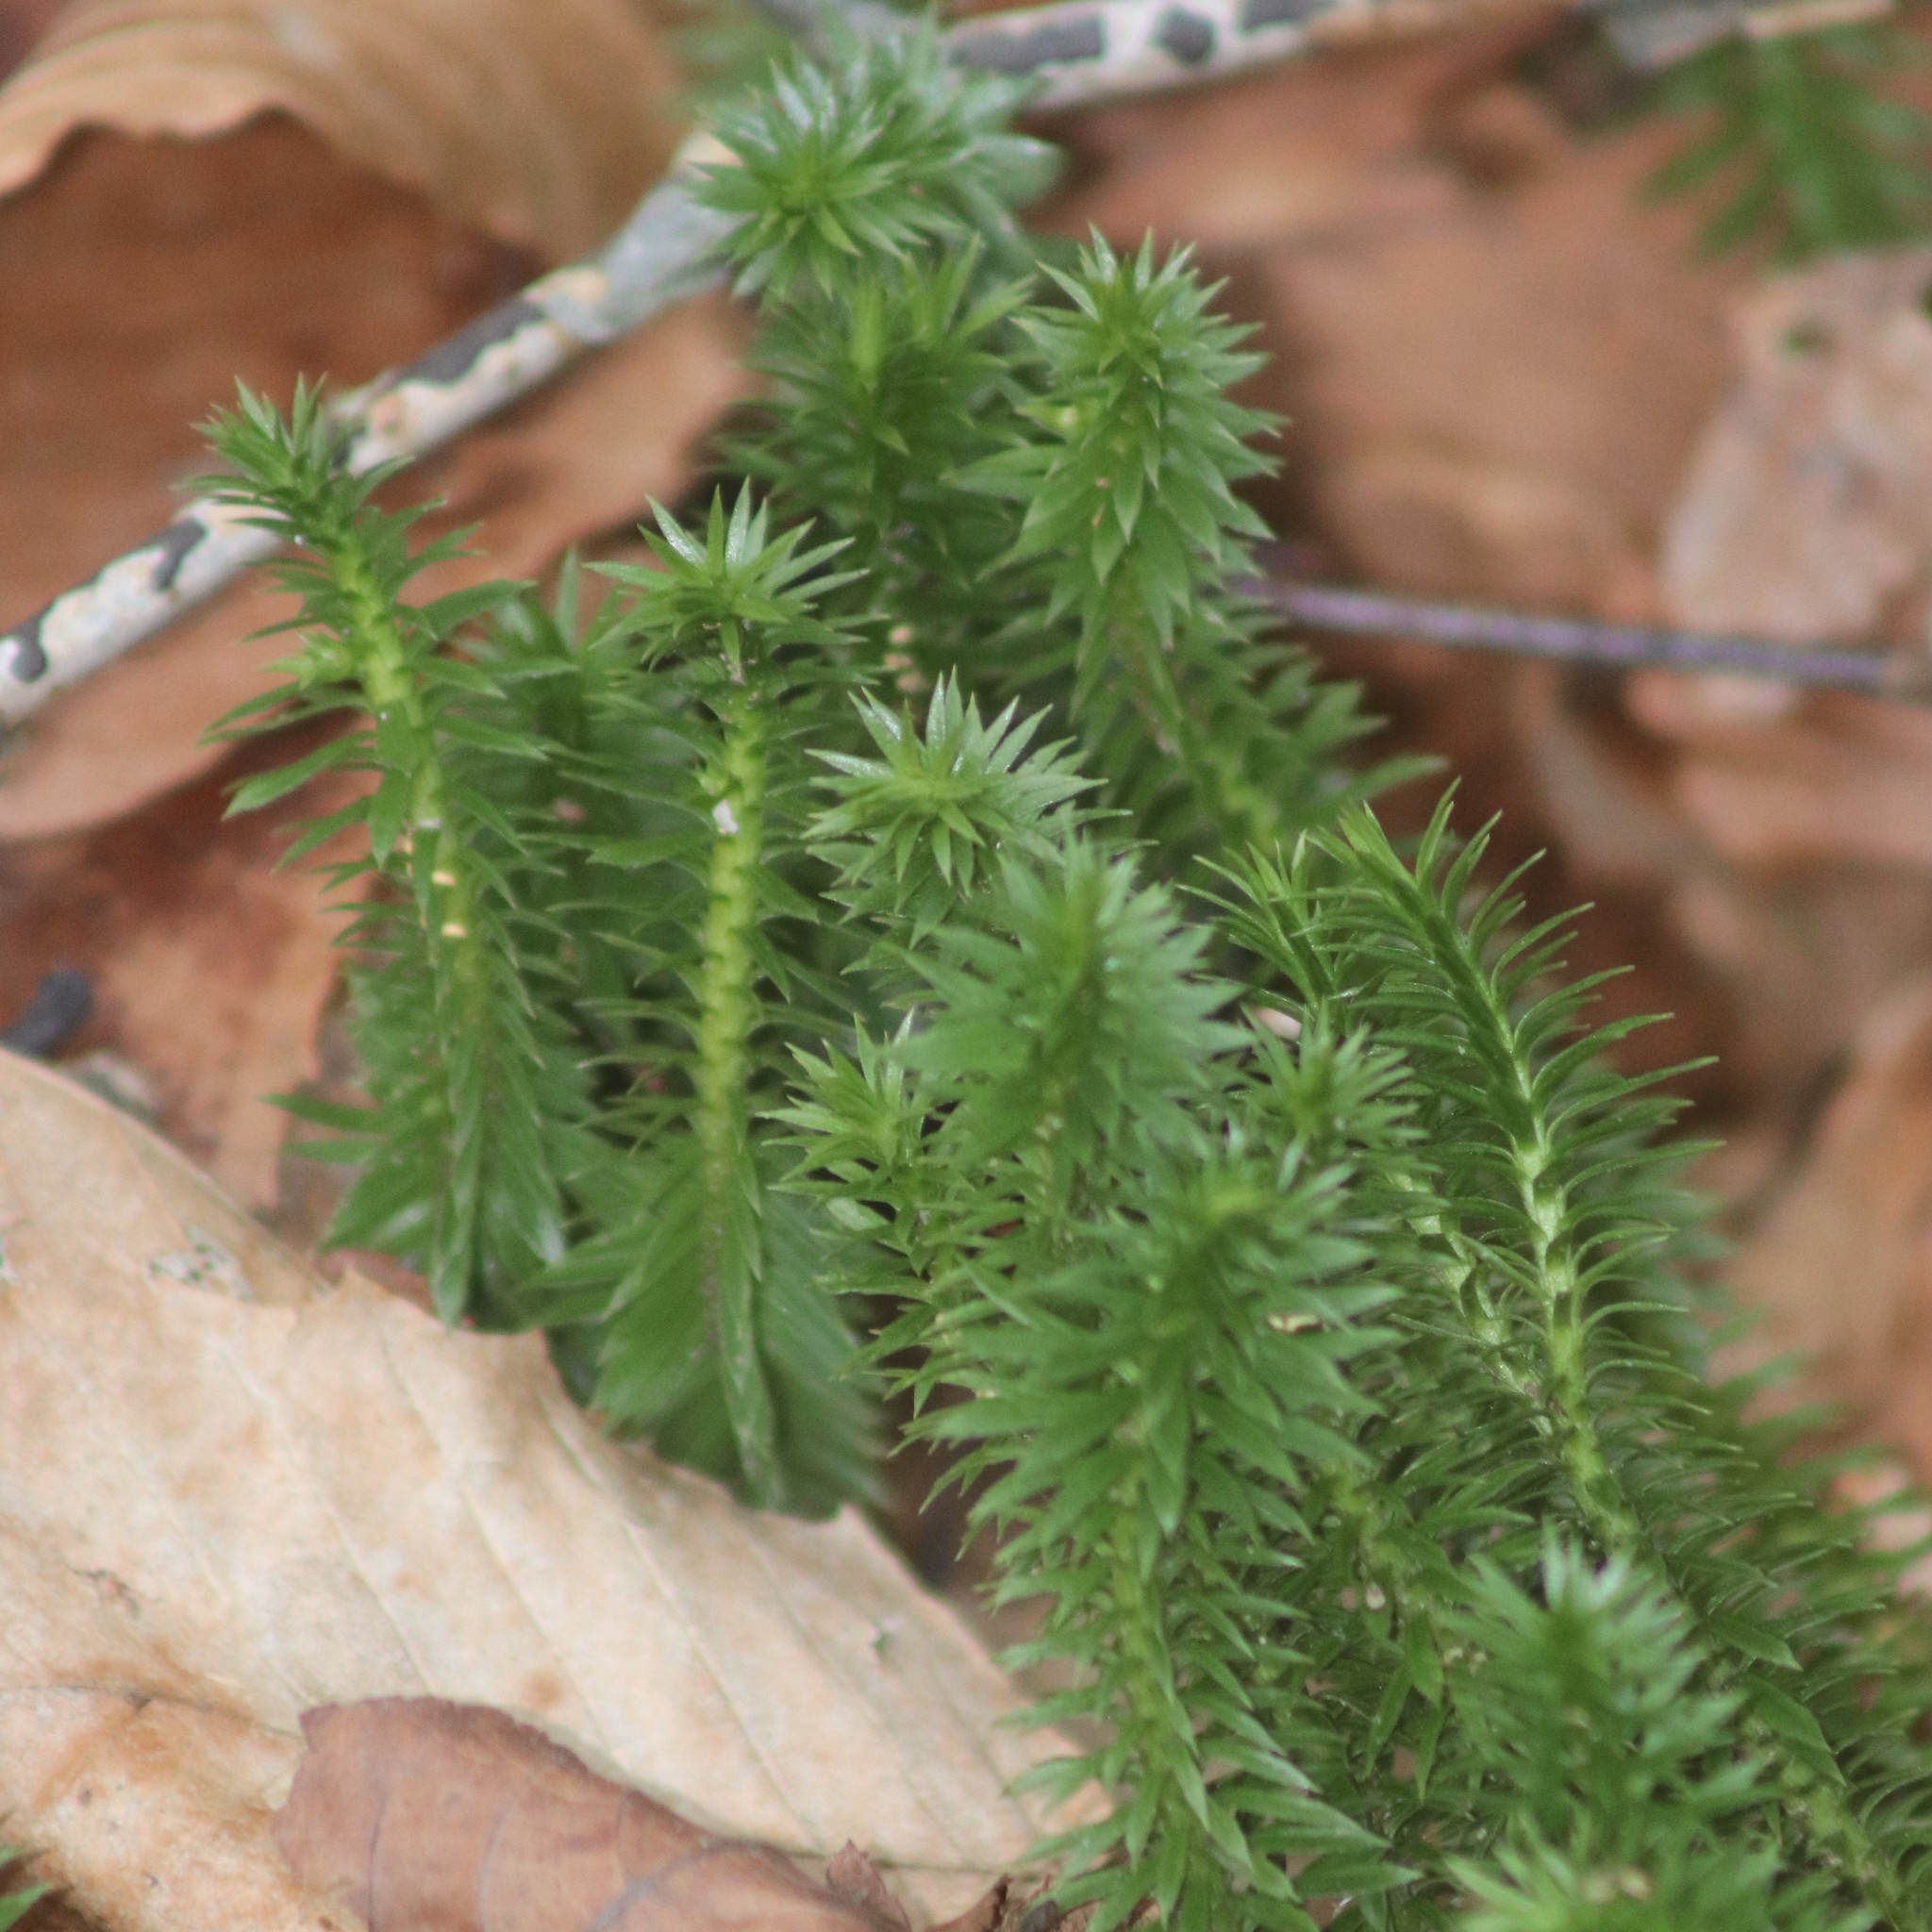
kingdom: Plantae
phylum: Tracheophyta
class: Lycopodiopsida
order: Lycopodiales
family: Lycopodiaceae
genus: Huperzia
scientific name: Huperzia lucidula
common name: Shining clubmoss
